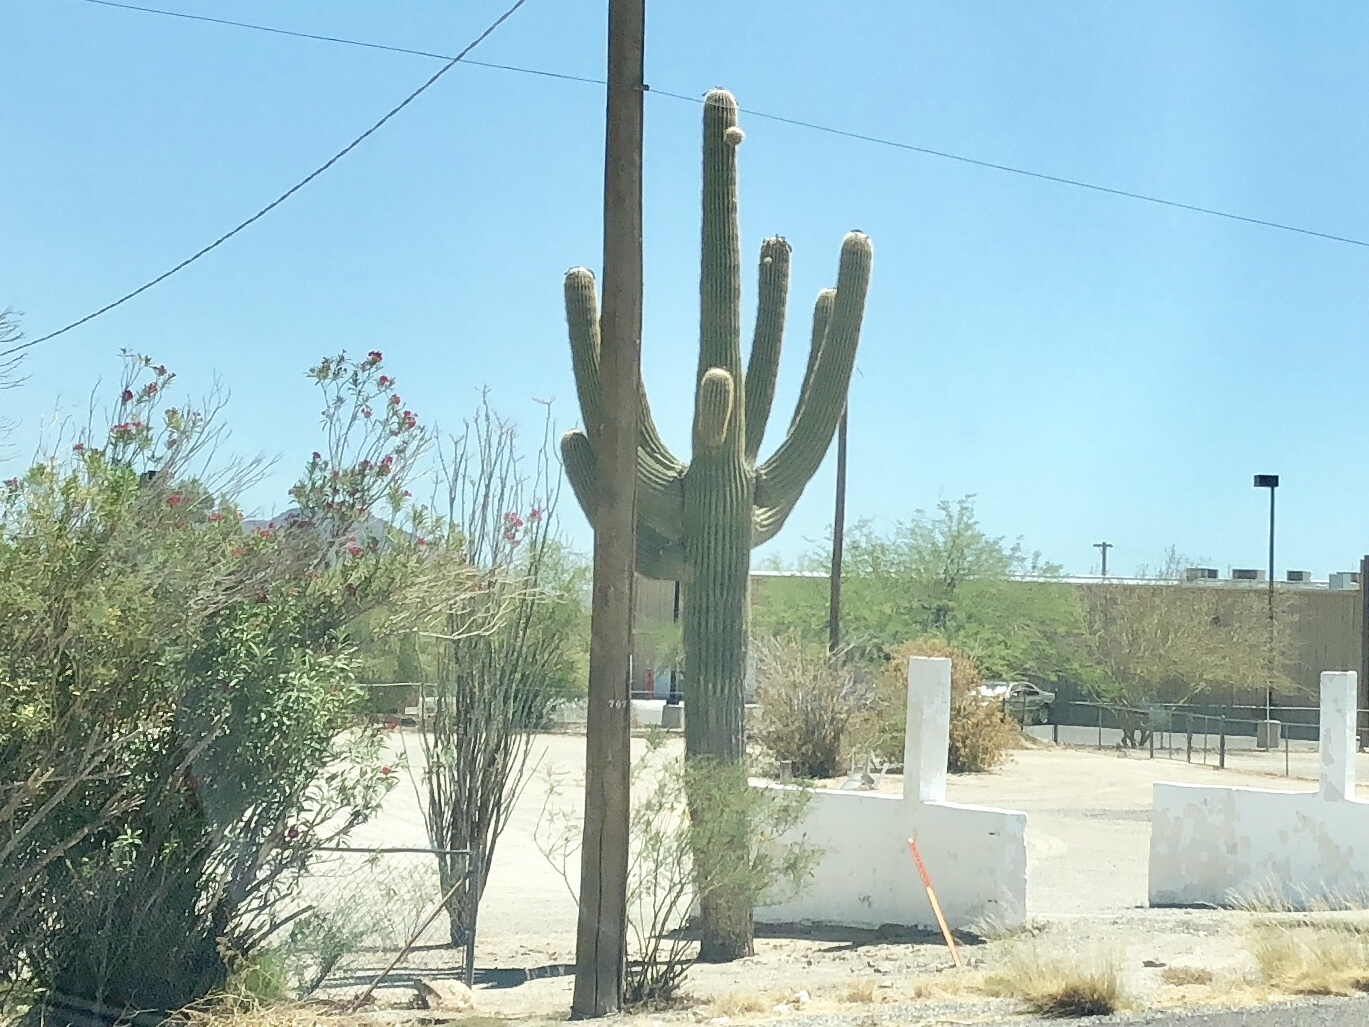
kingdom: Plantae
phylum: Tracheophyta
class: Magnoliopsida
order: Caryophyllales
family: Cactaceae
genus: Carnegiea
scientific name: Carnegiea gigantea
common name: Saguaro
